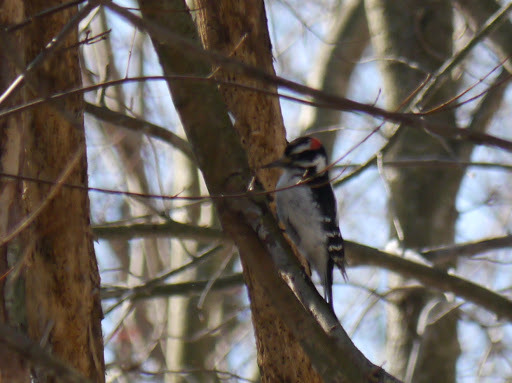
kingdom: Animalia
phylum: Chordata
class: Aves
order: Piciformes
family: Picidae
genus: Leuconotopicus
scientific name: Leuconotopicus villosus
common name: Hairy woodpecker
